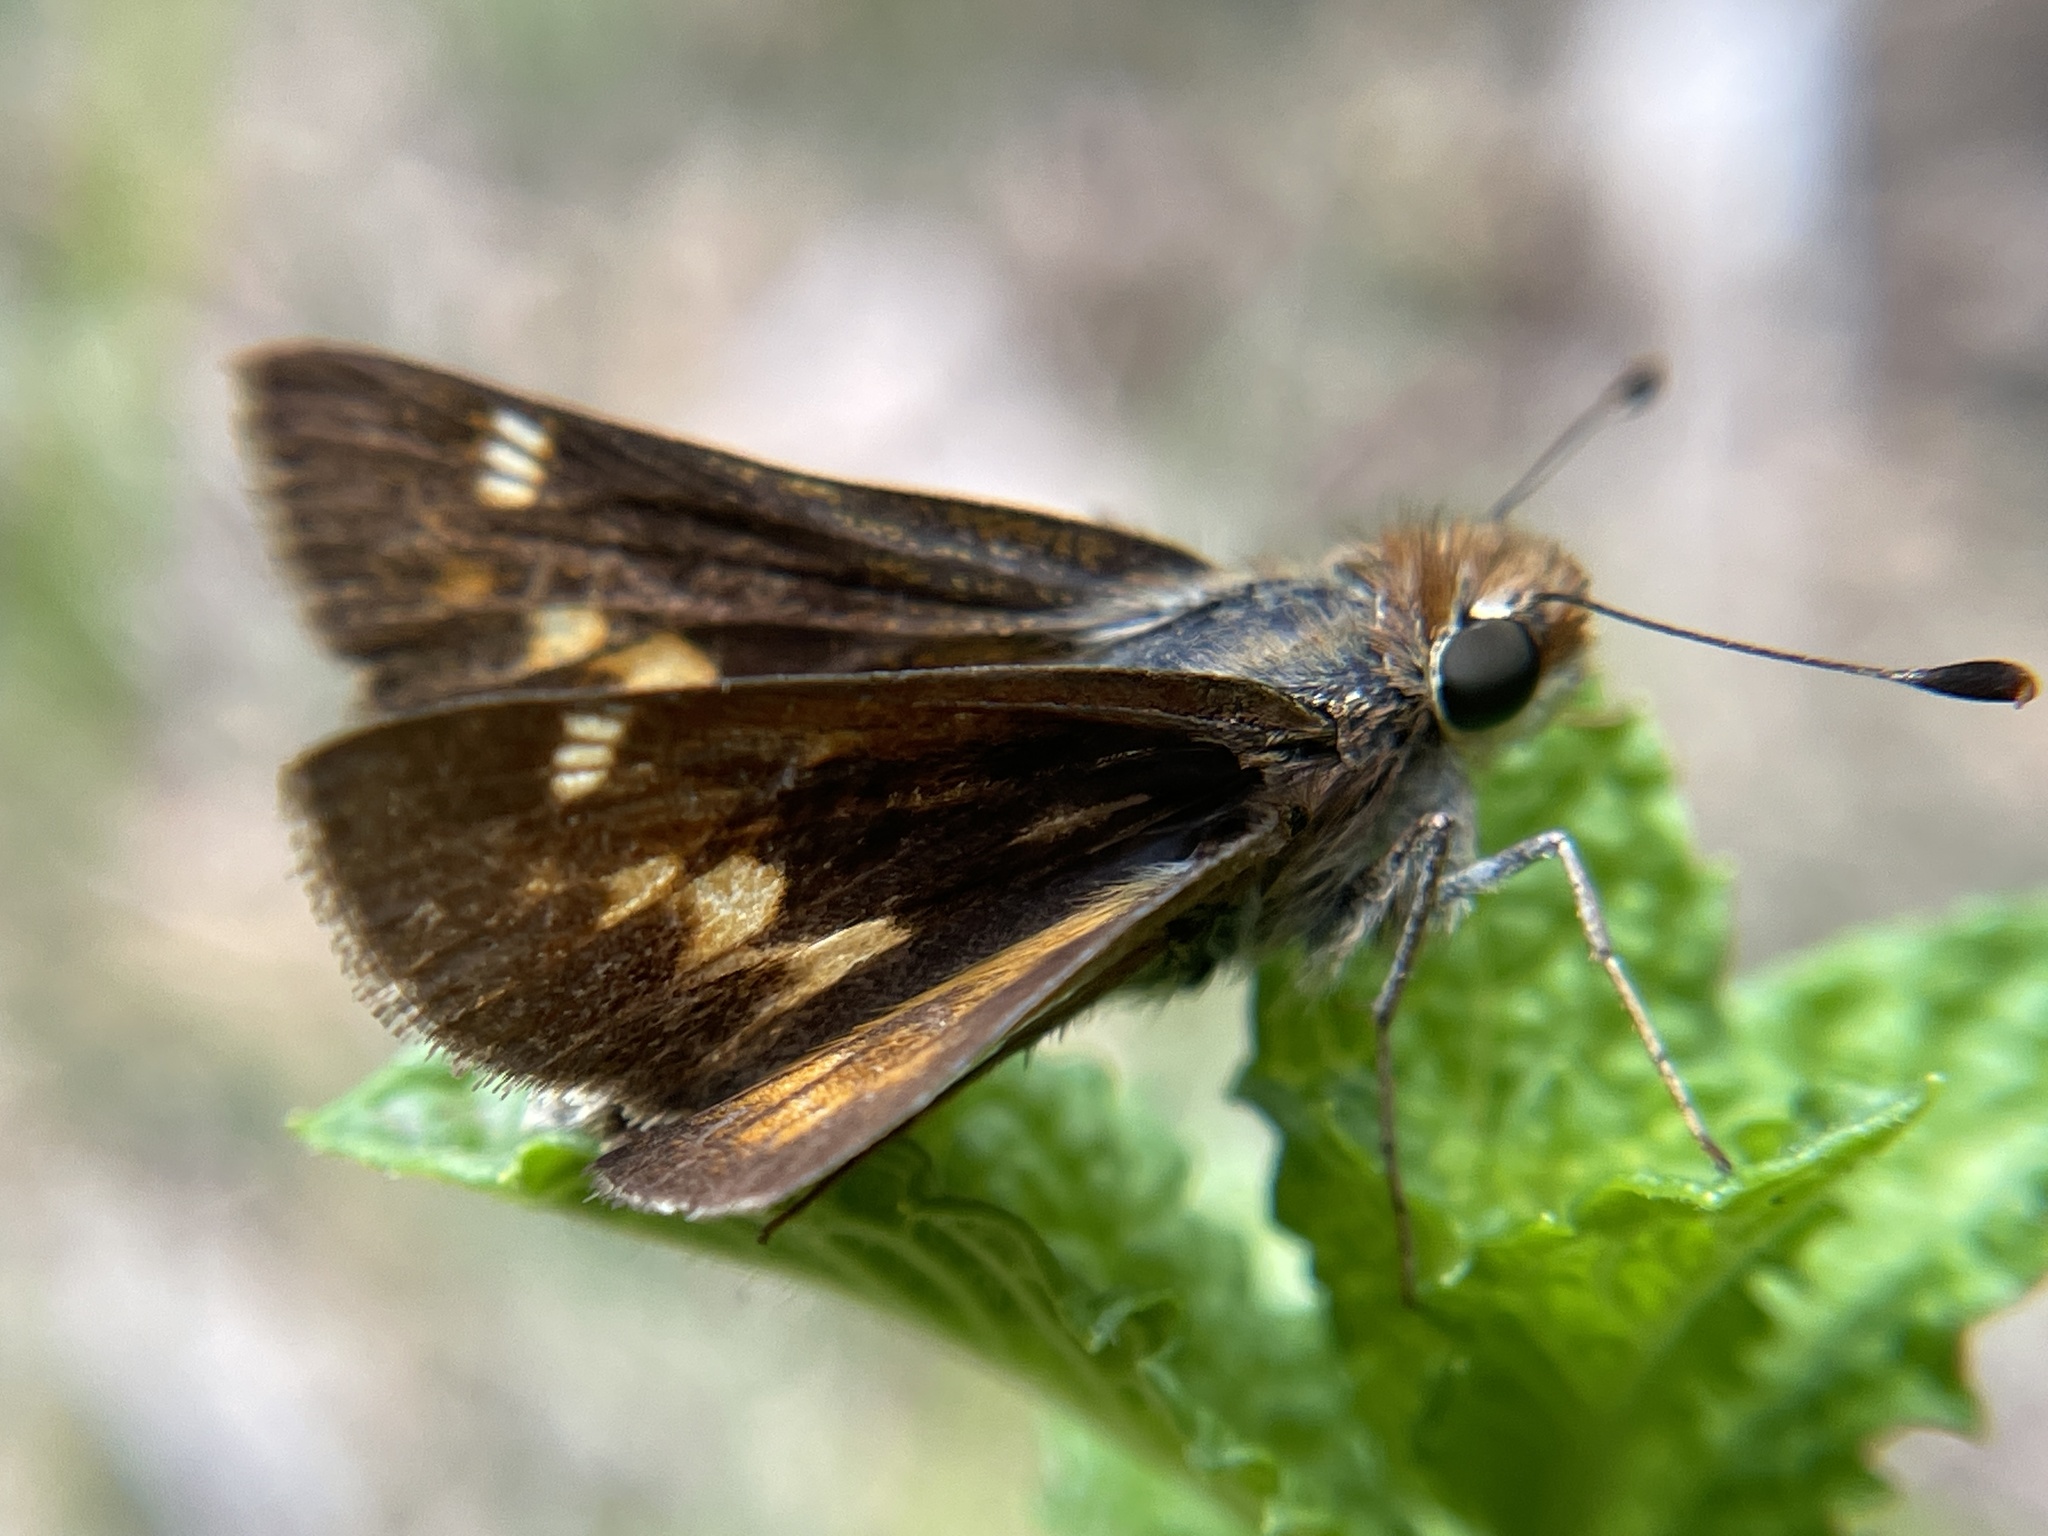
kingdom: Animalia
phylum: Arthropoda
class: Insecta
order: Lepidoptera
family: Hesperiidae
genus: Lon
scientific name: Lon melane
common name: Umber skipper
